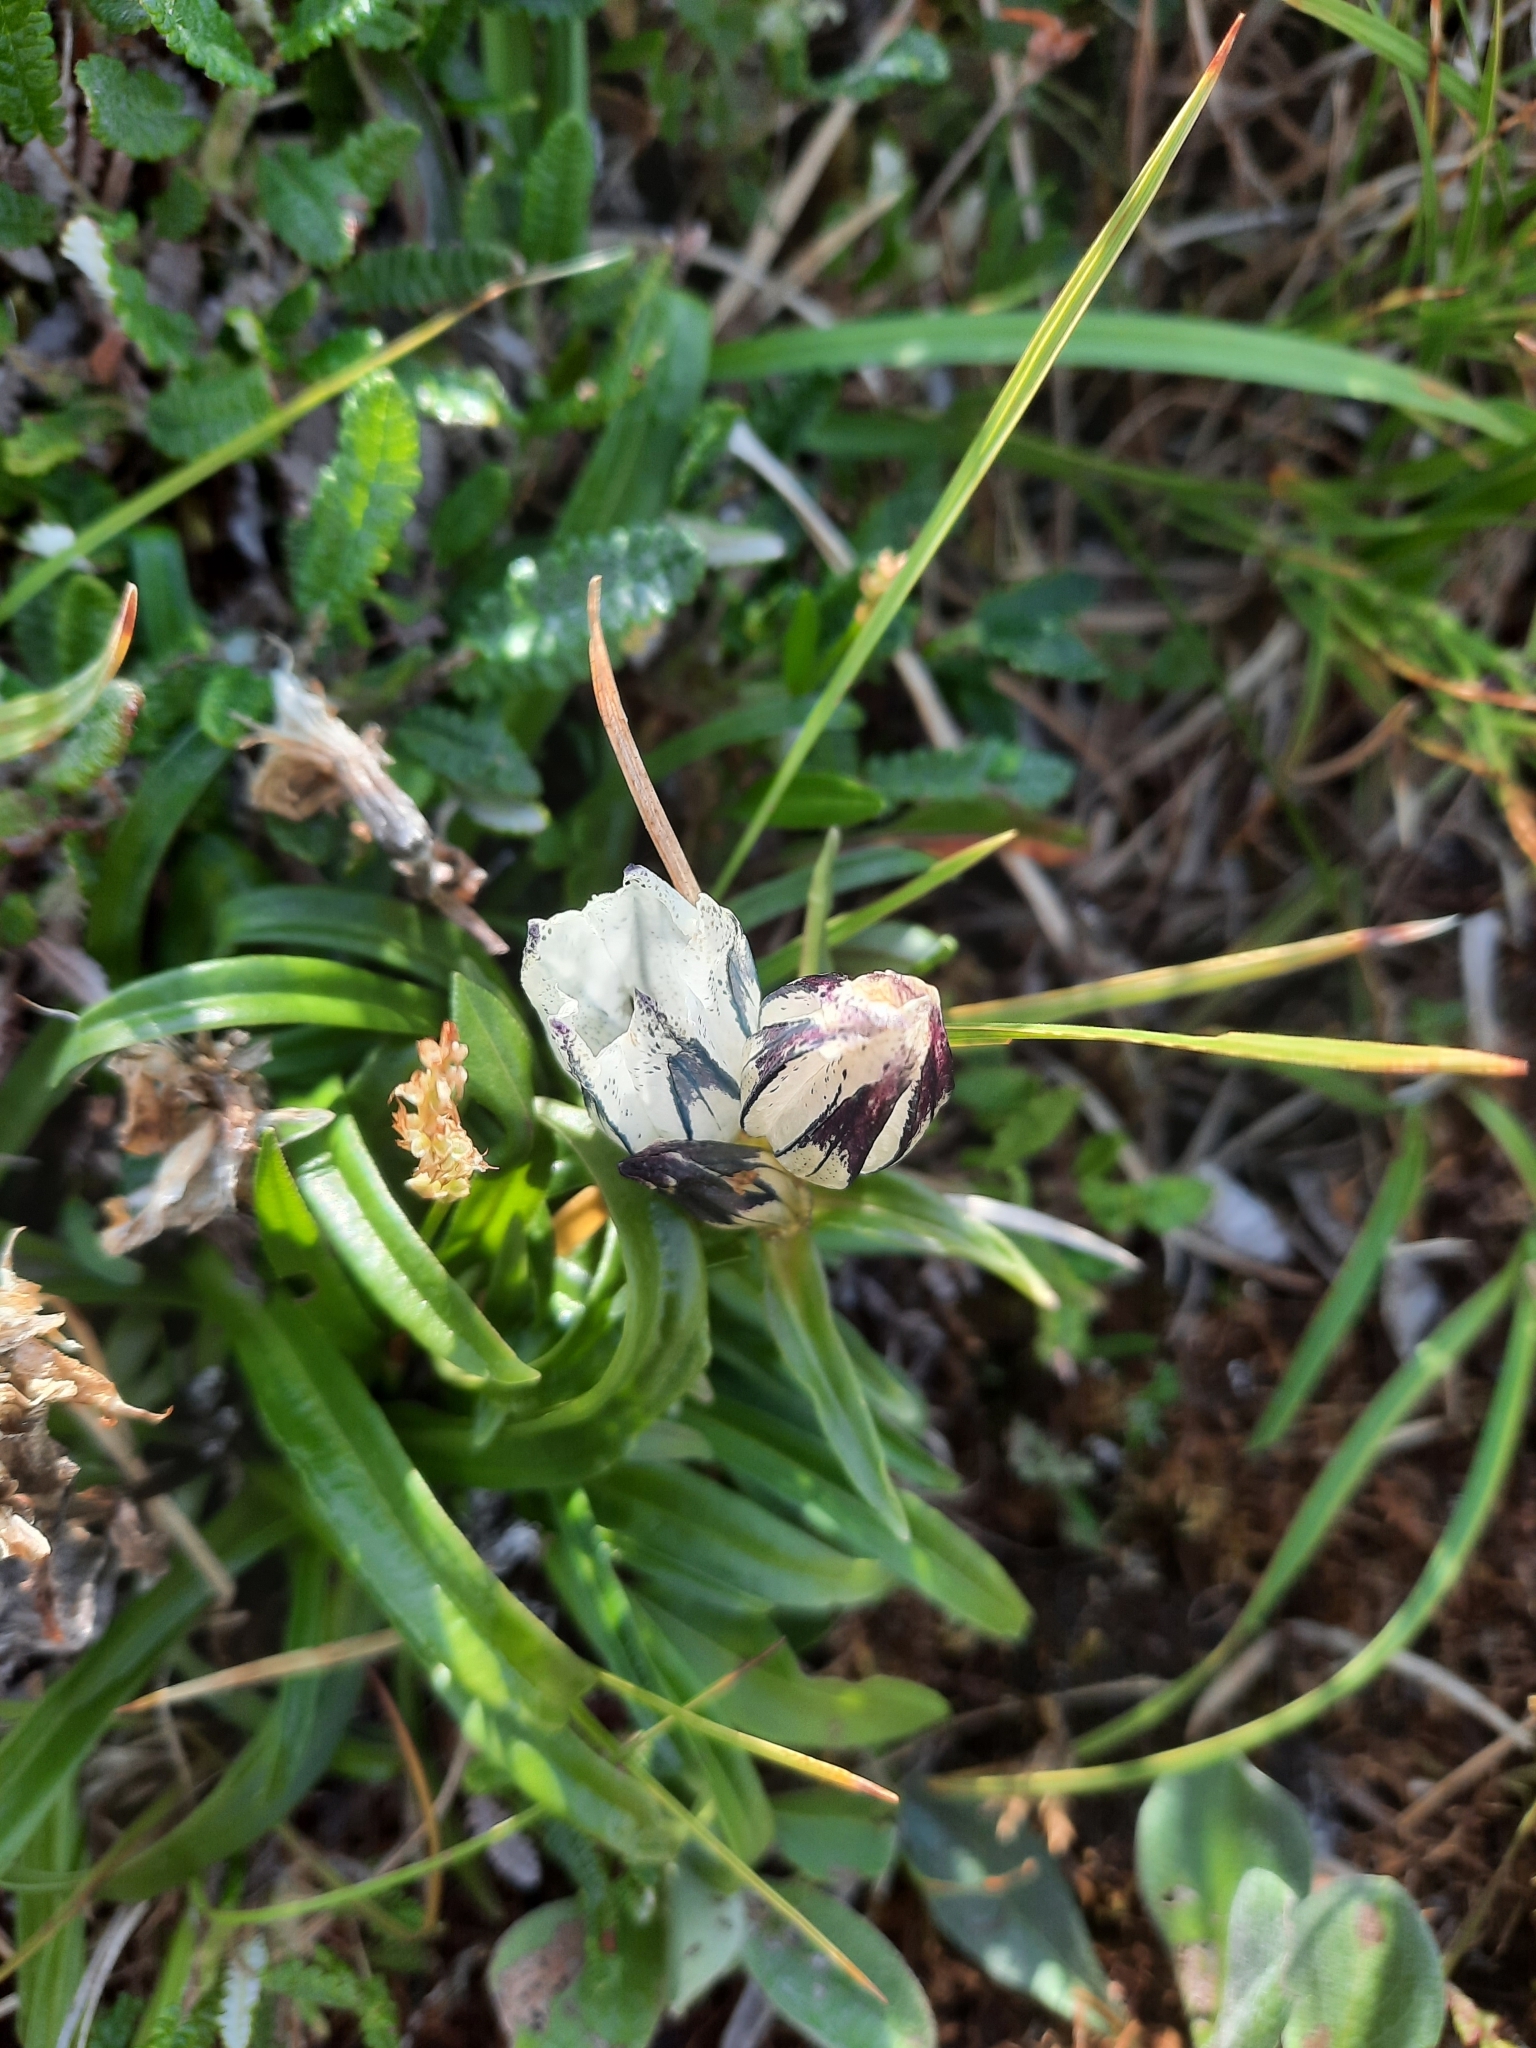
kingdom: Plantae
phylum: Tracheophyta
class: Magnoliopsida
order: Gentianales
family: Gentianaceae
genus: Gentiana
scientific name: Gentiana algida
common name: Arctic gentian
